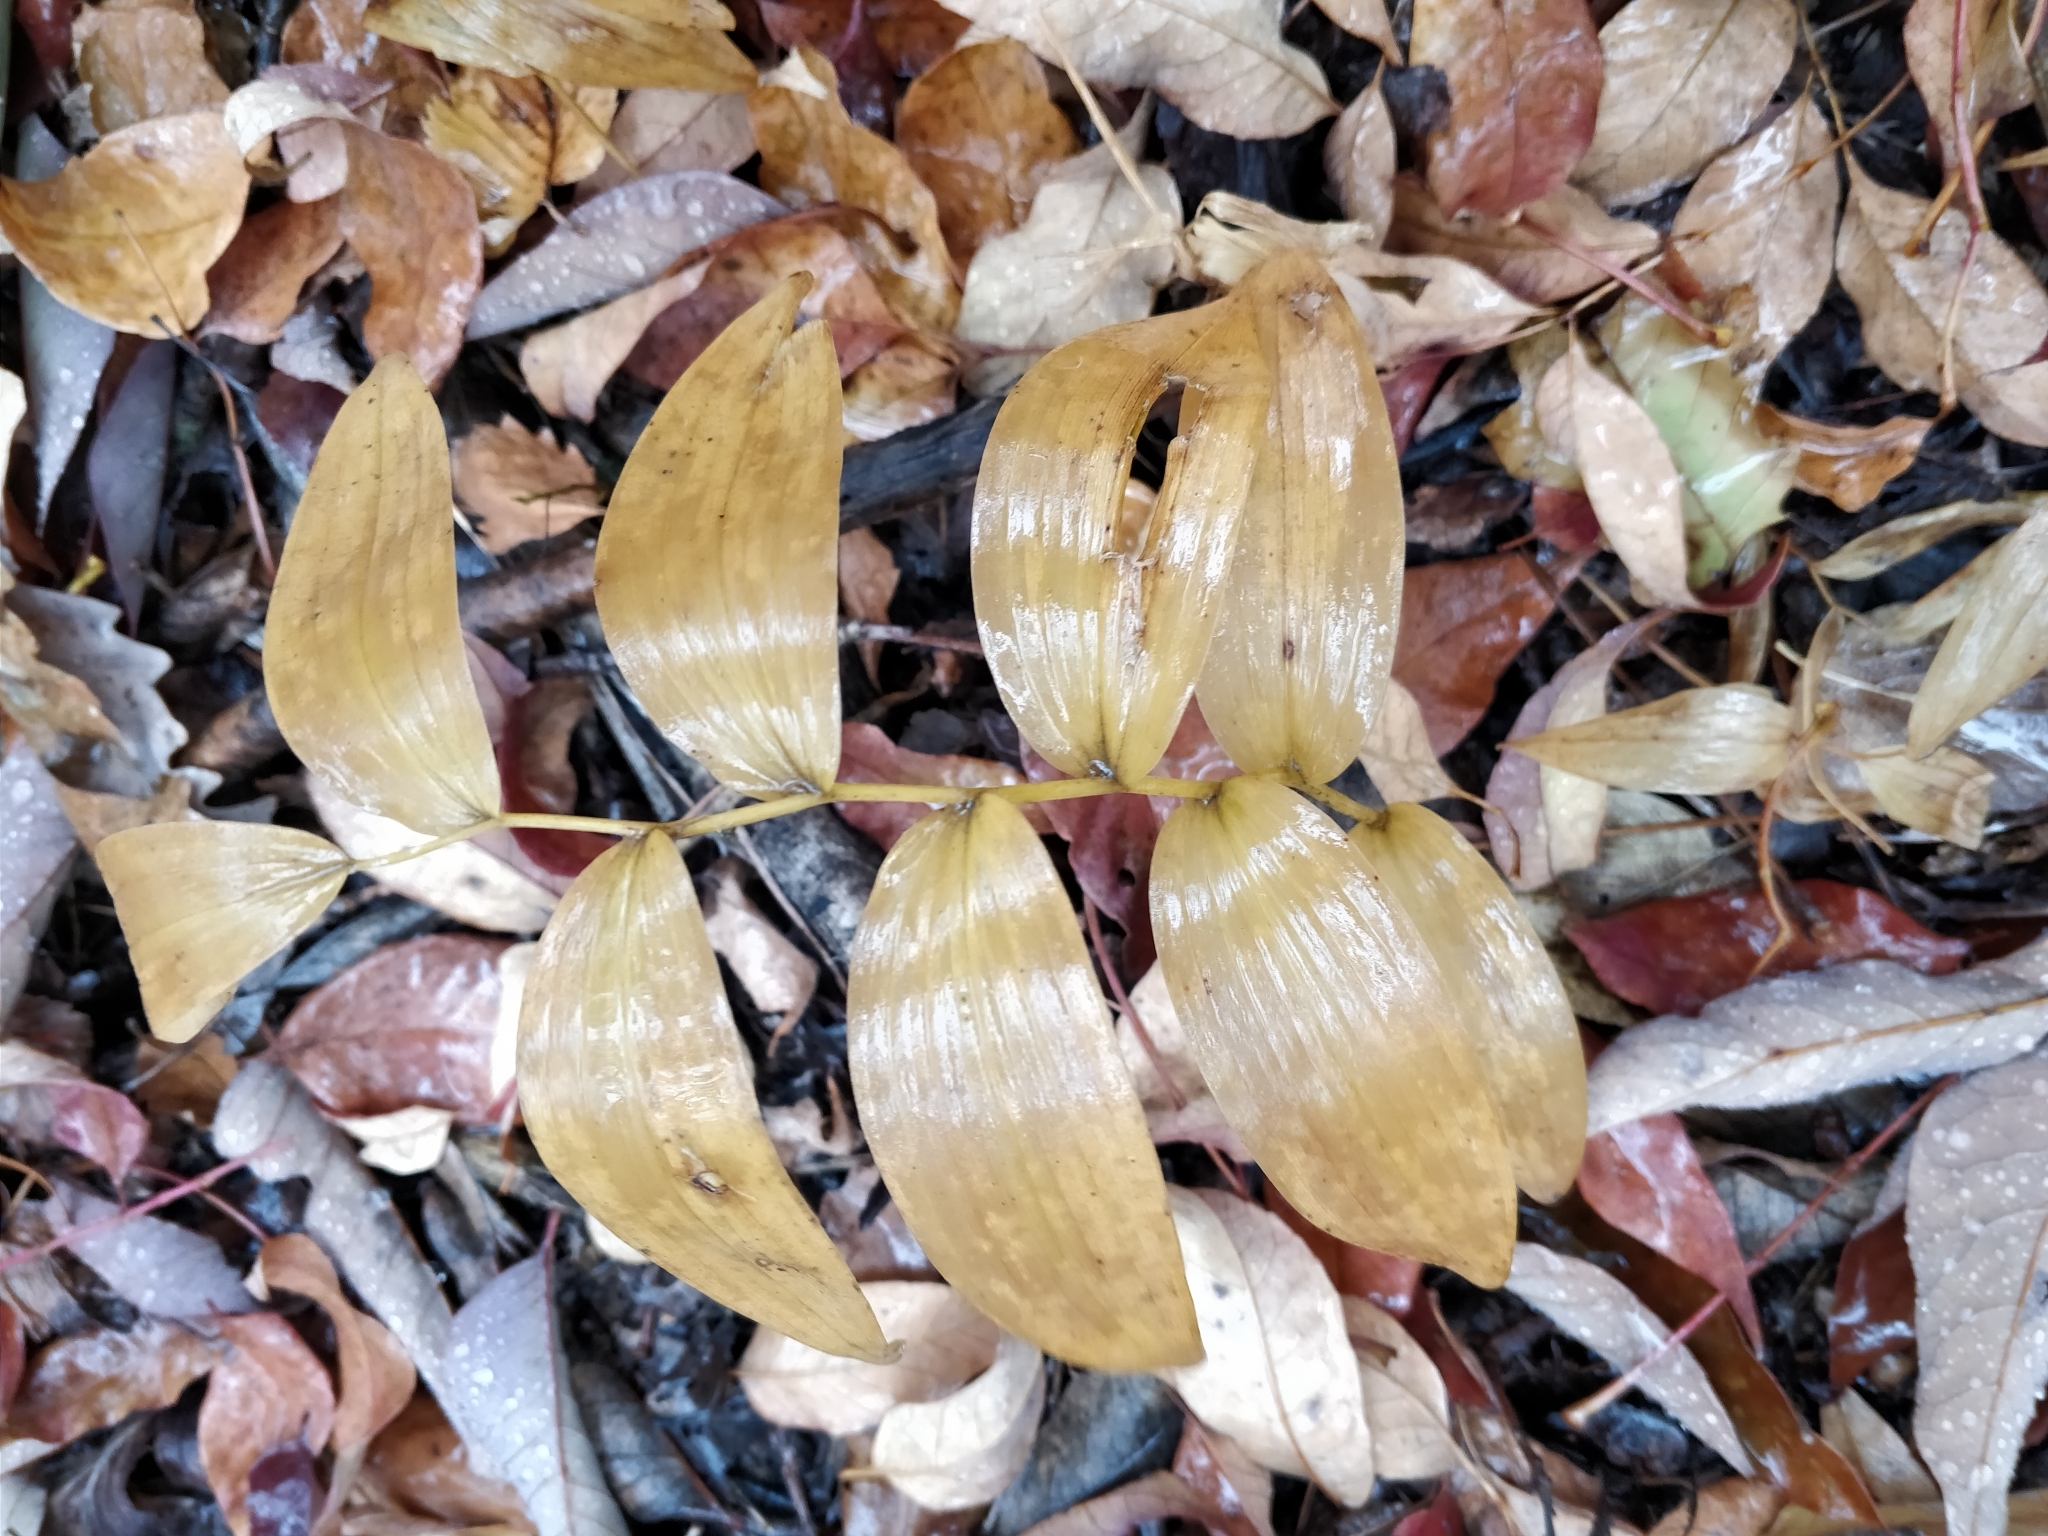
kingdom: Plantae
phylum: Tracheophyta
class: Liliopsida
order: Asparagales
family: Asparagaceae
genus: Polygonatum
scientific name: Polygonatum biflorum
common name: American solomon's-seal
